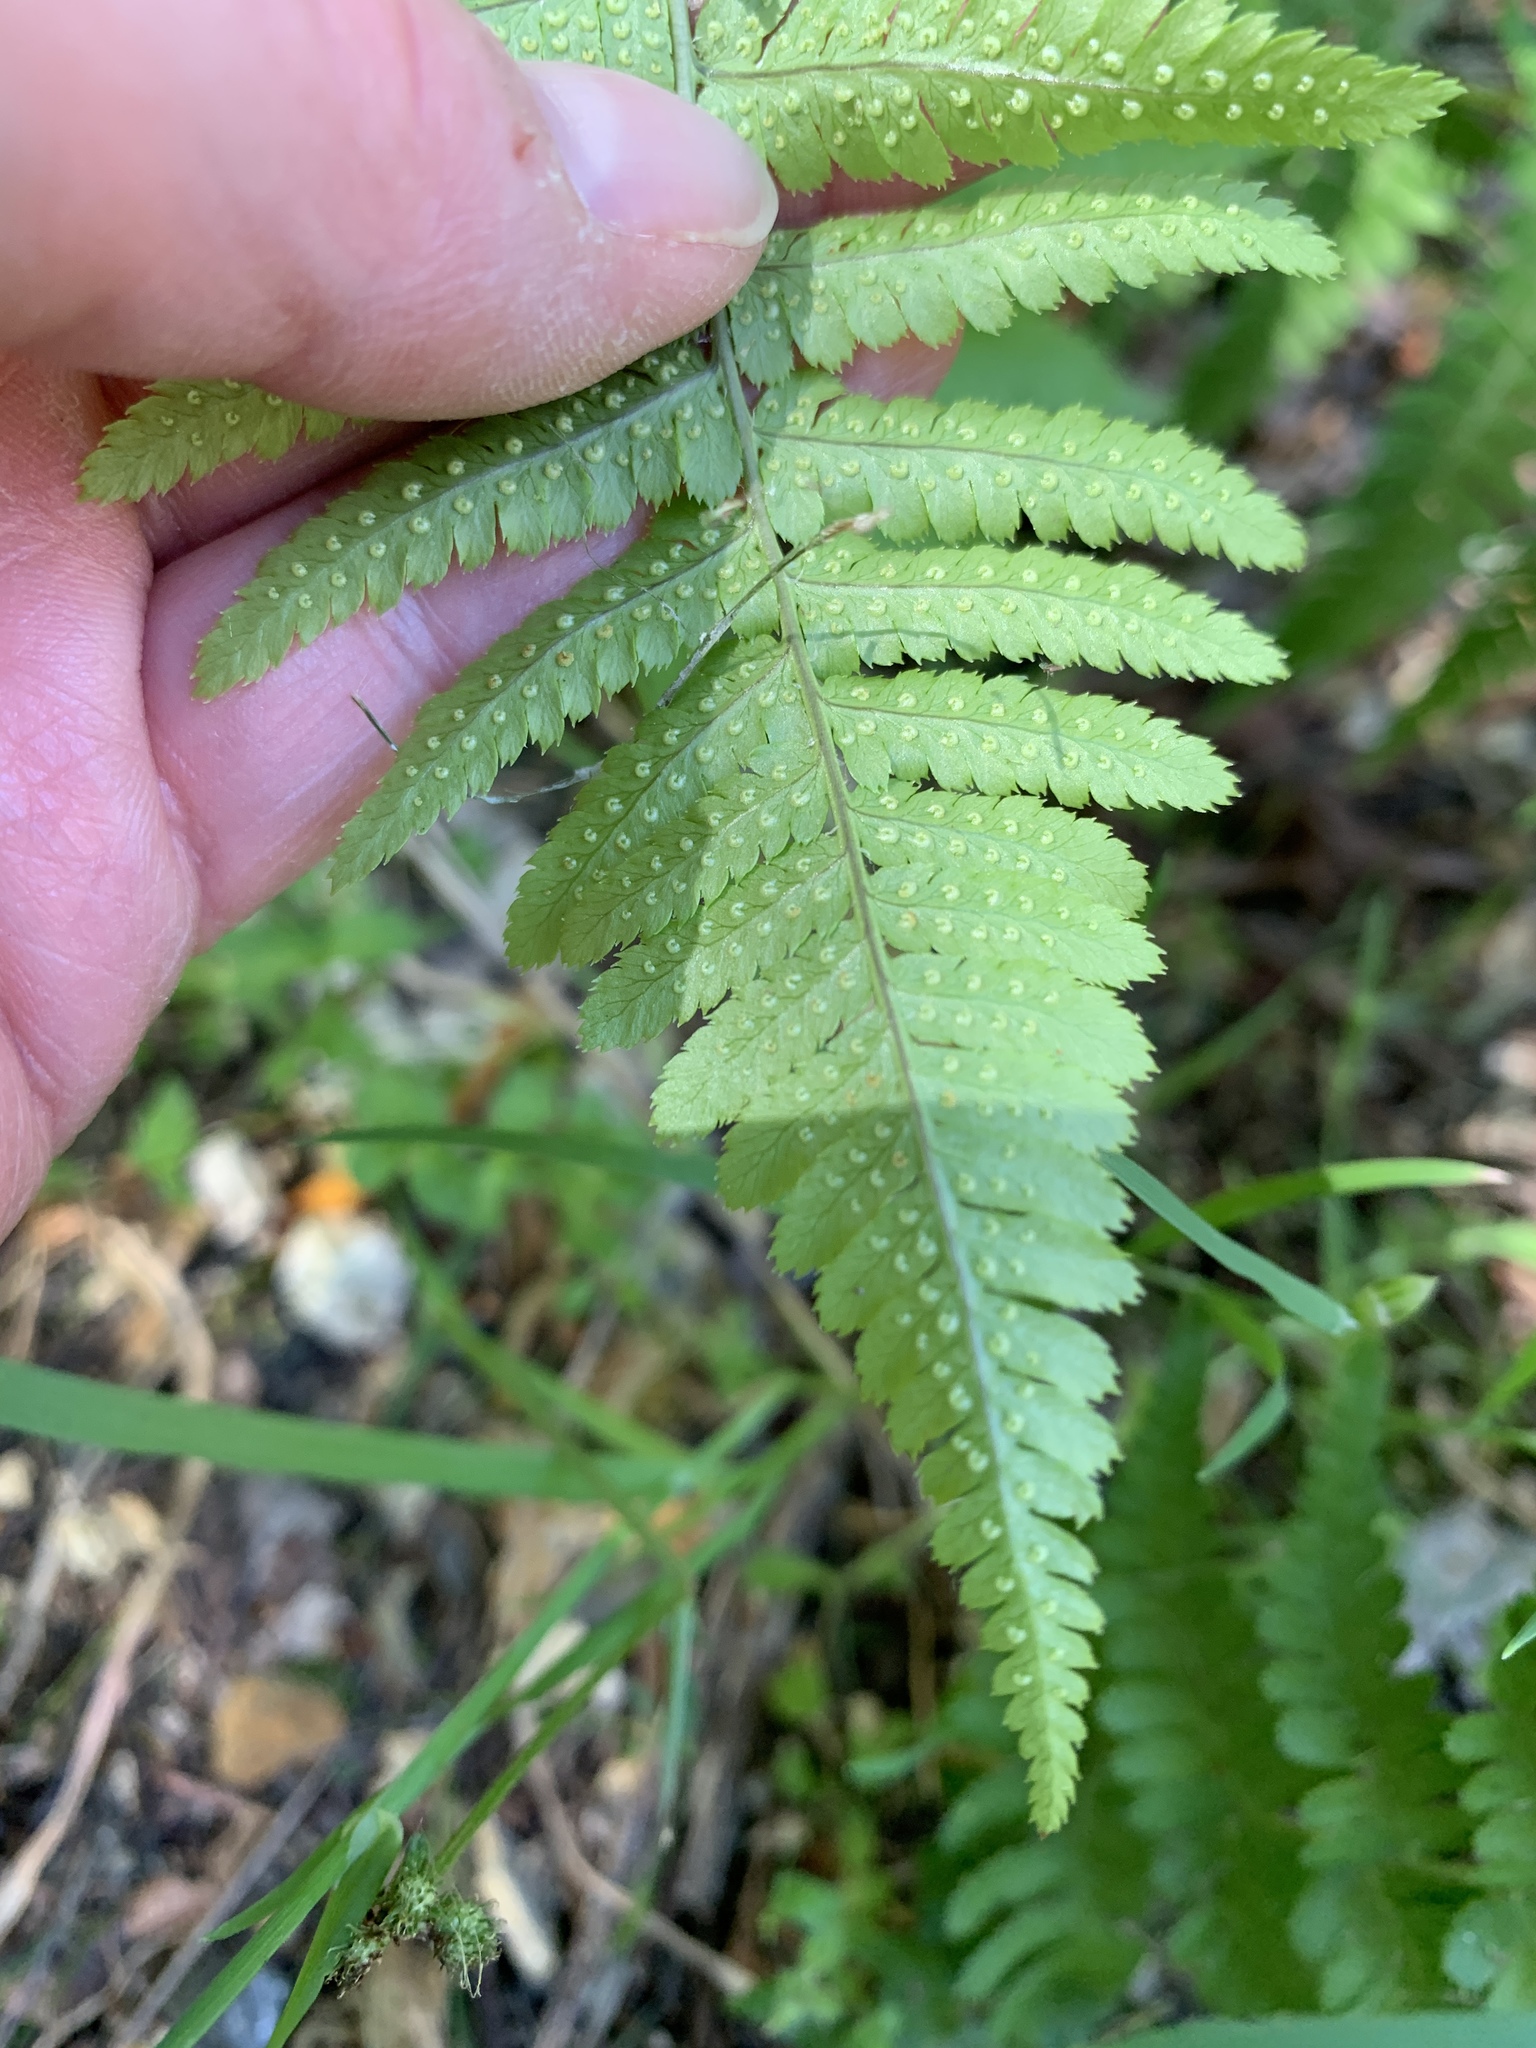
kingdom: Plantae
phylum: Tracheophyta
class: Polypodiopsida
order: Polypodiales
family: Dryopteridaceae
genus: Dryopteris
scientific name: Dryopteris arguta
